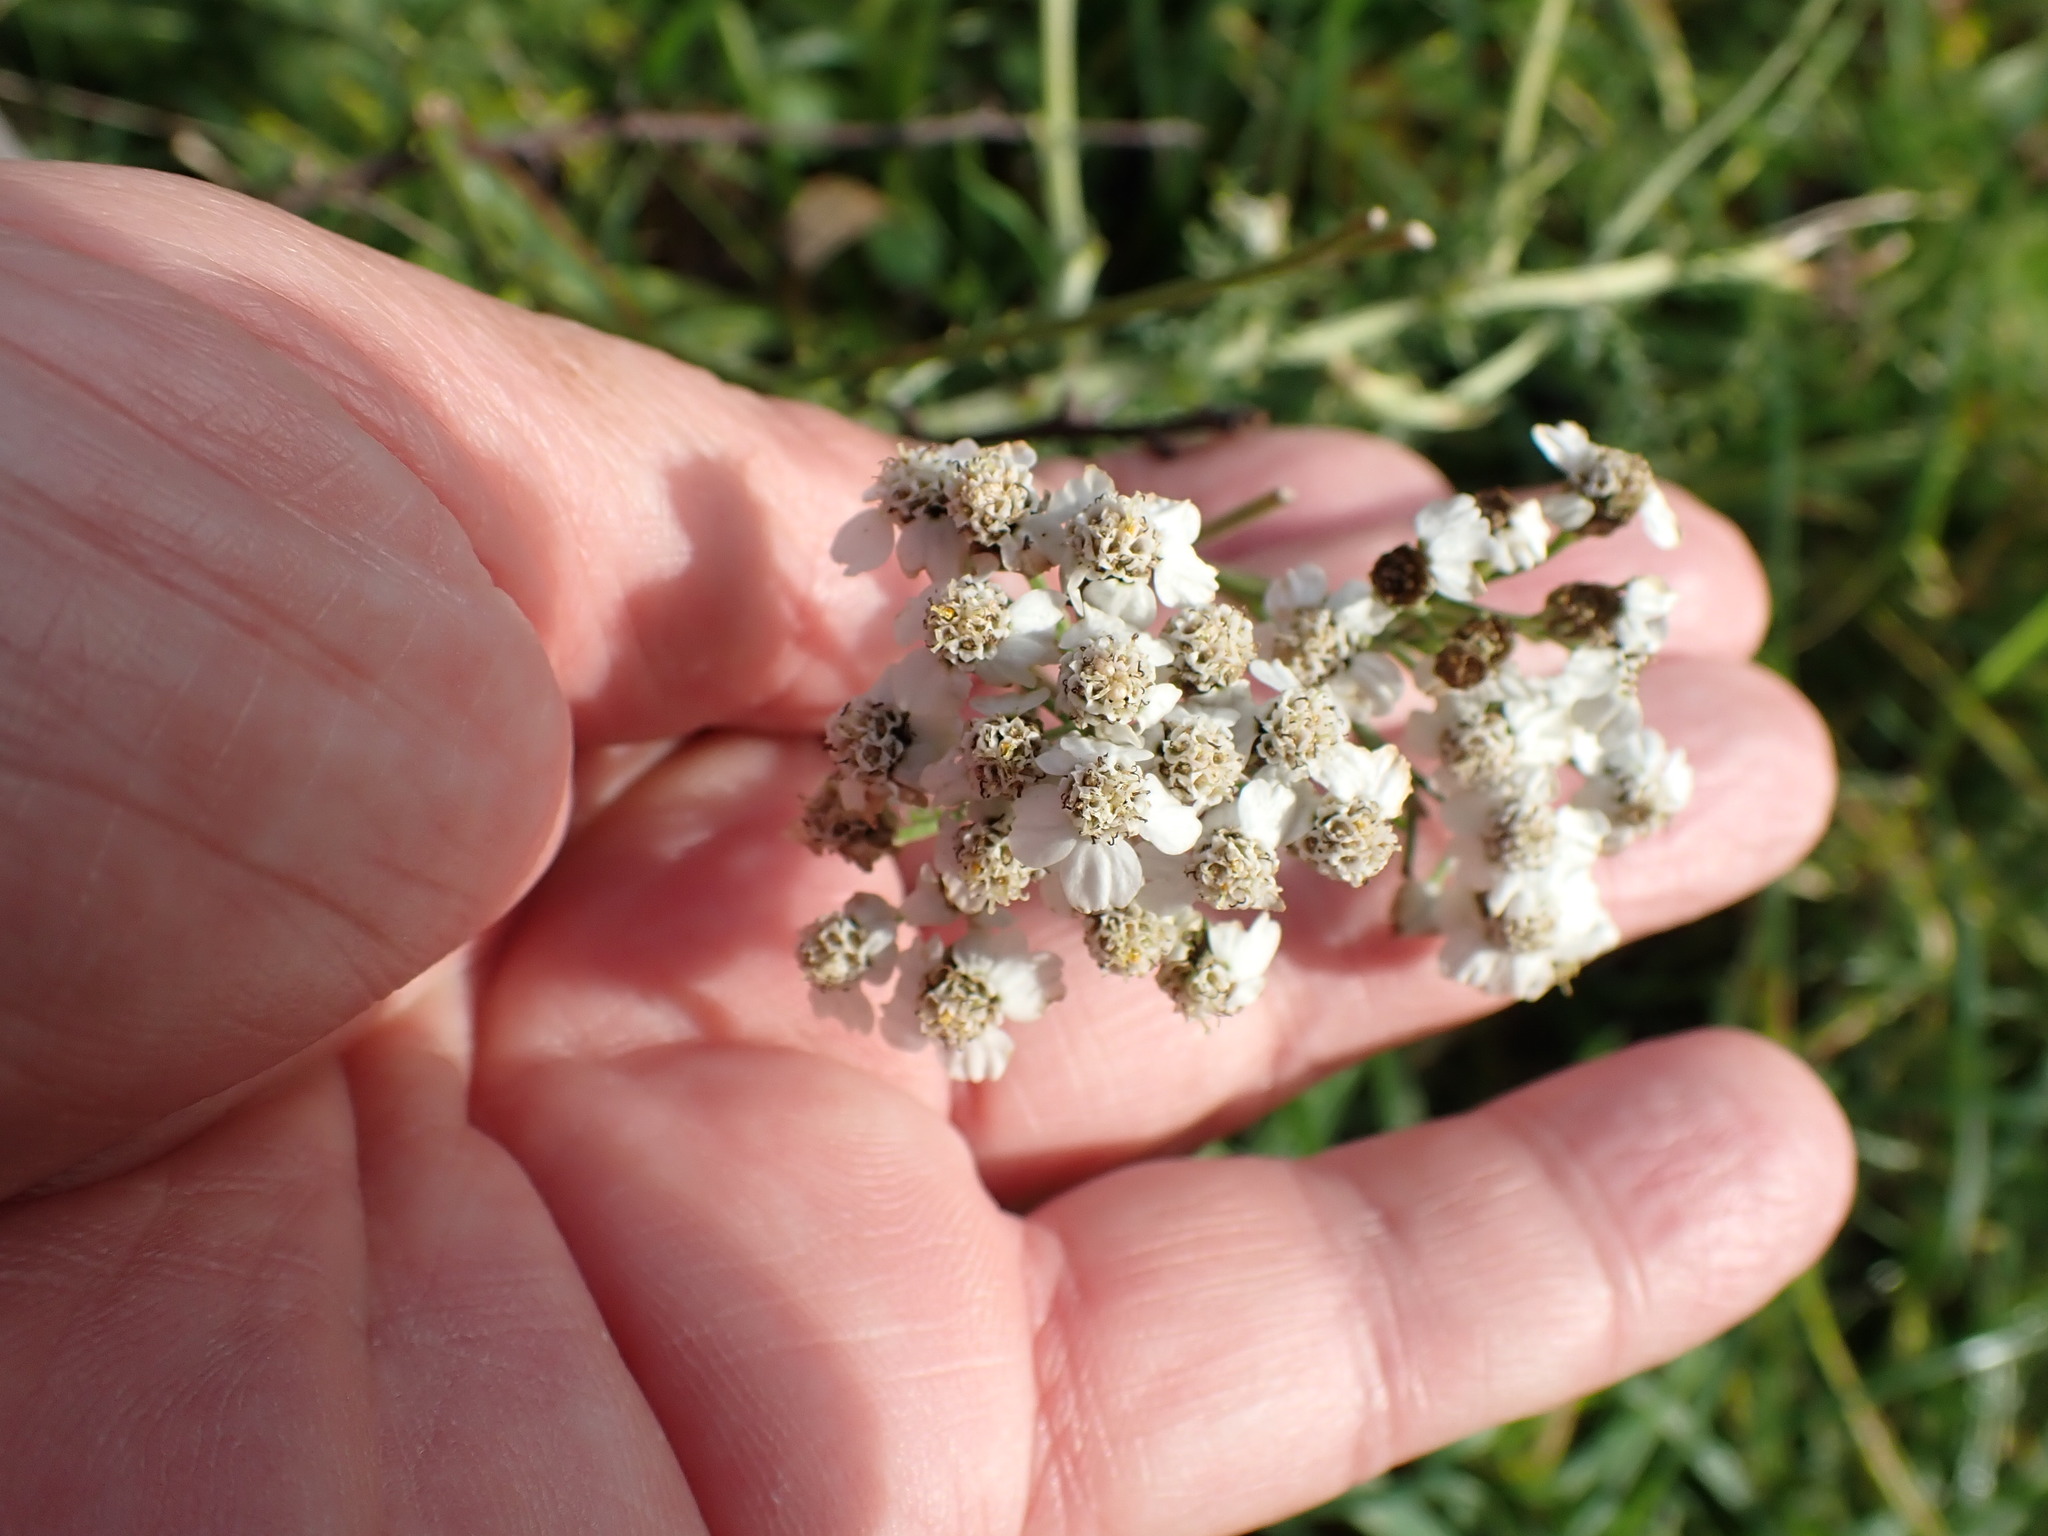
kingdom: Plantae
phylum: Tracheophyta
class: Magnoliopsida
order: Asterales
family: Asteraceae
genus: Achillea
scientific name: Achillea millefolium
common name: Yarrow
